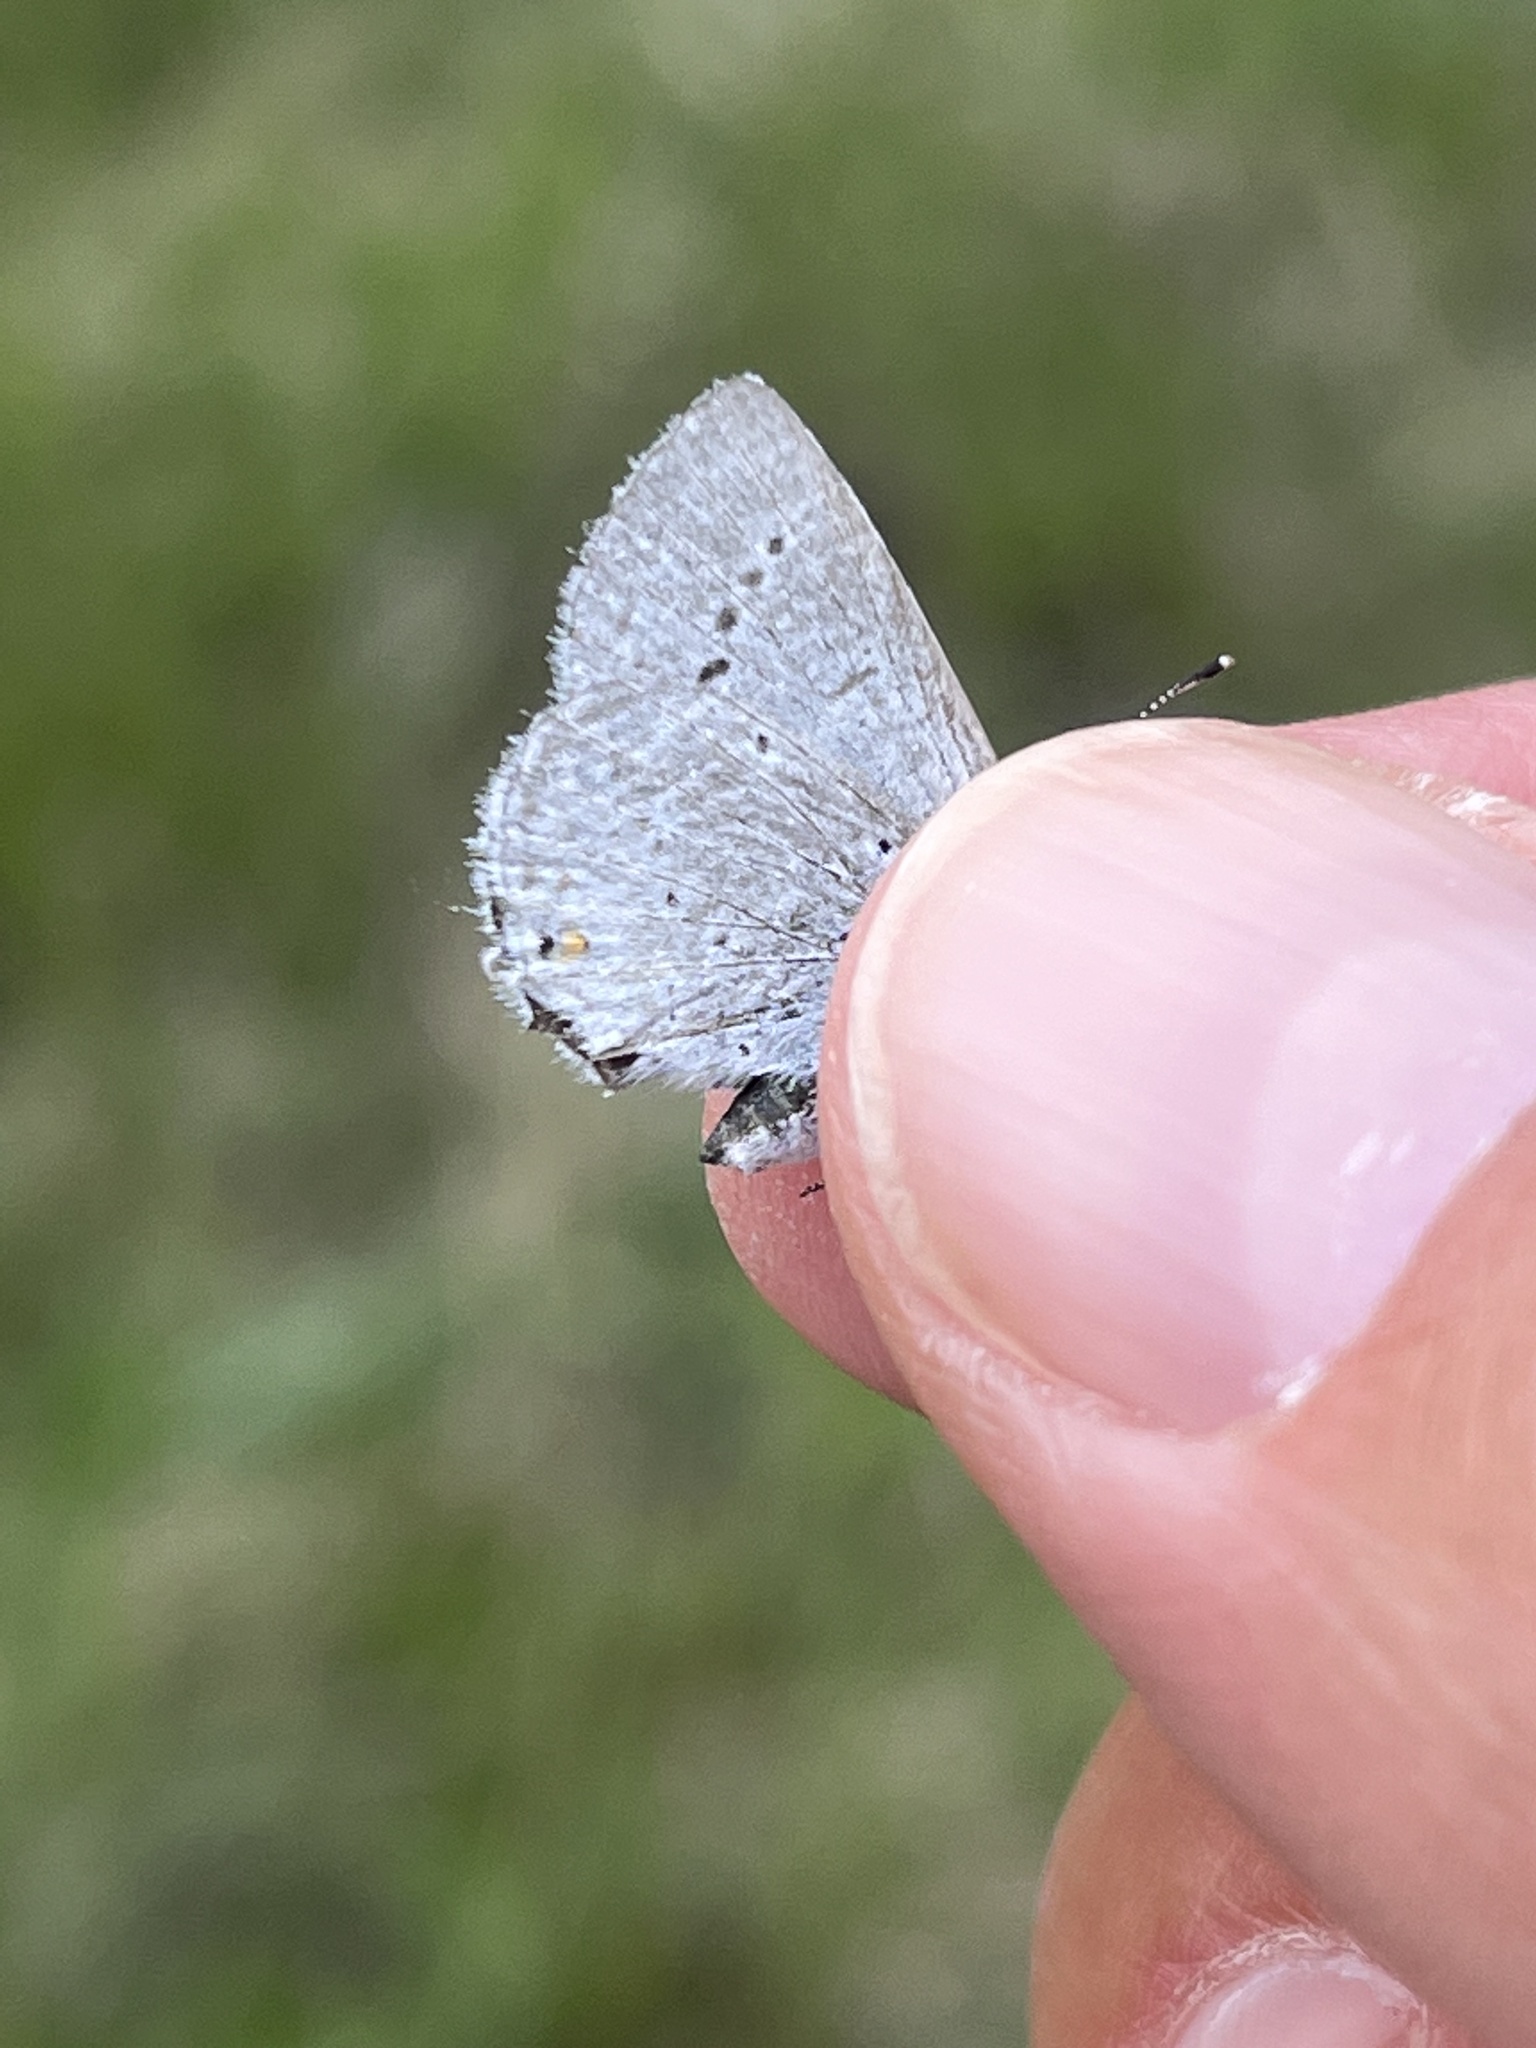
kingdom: Animalia
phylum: Arthropoda
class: Insecta
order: Lepidoptera
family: Lycaenidae
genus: Elkalyce
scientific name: Elkalyce amyntula
